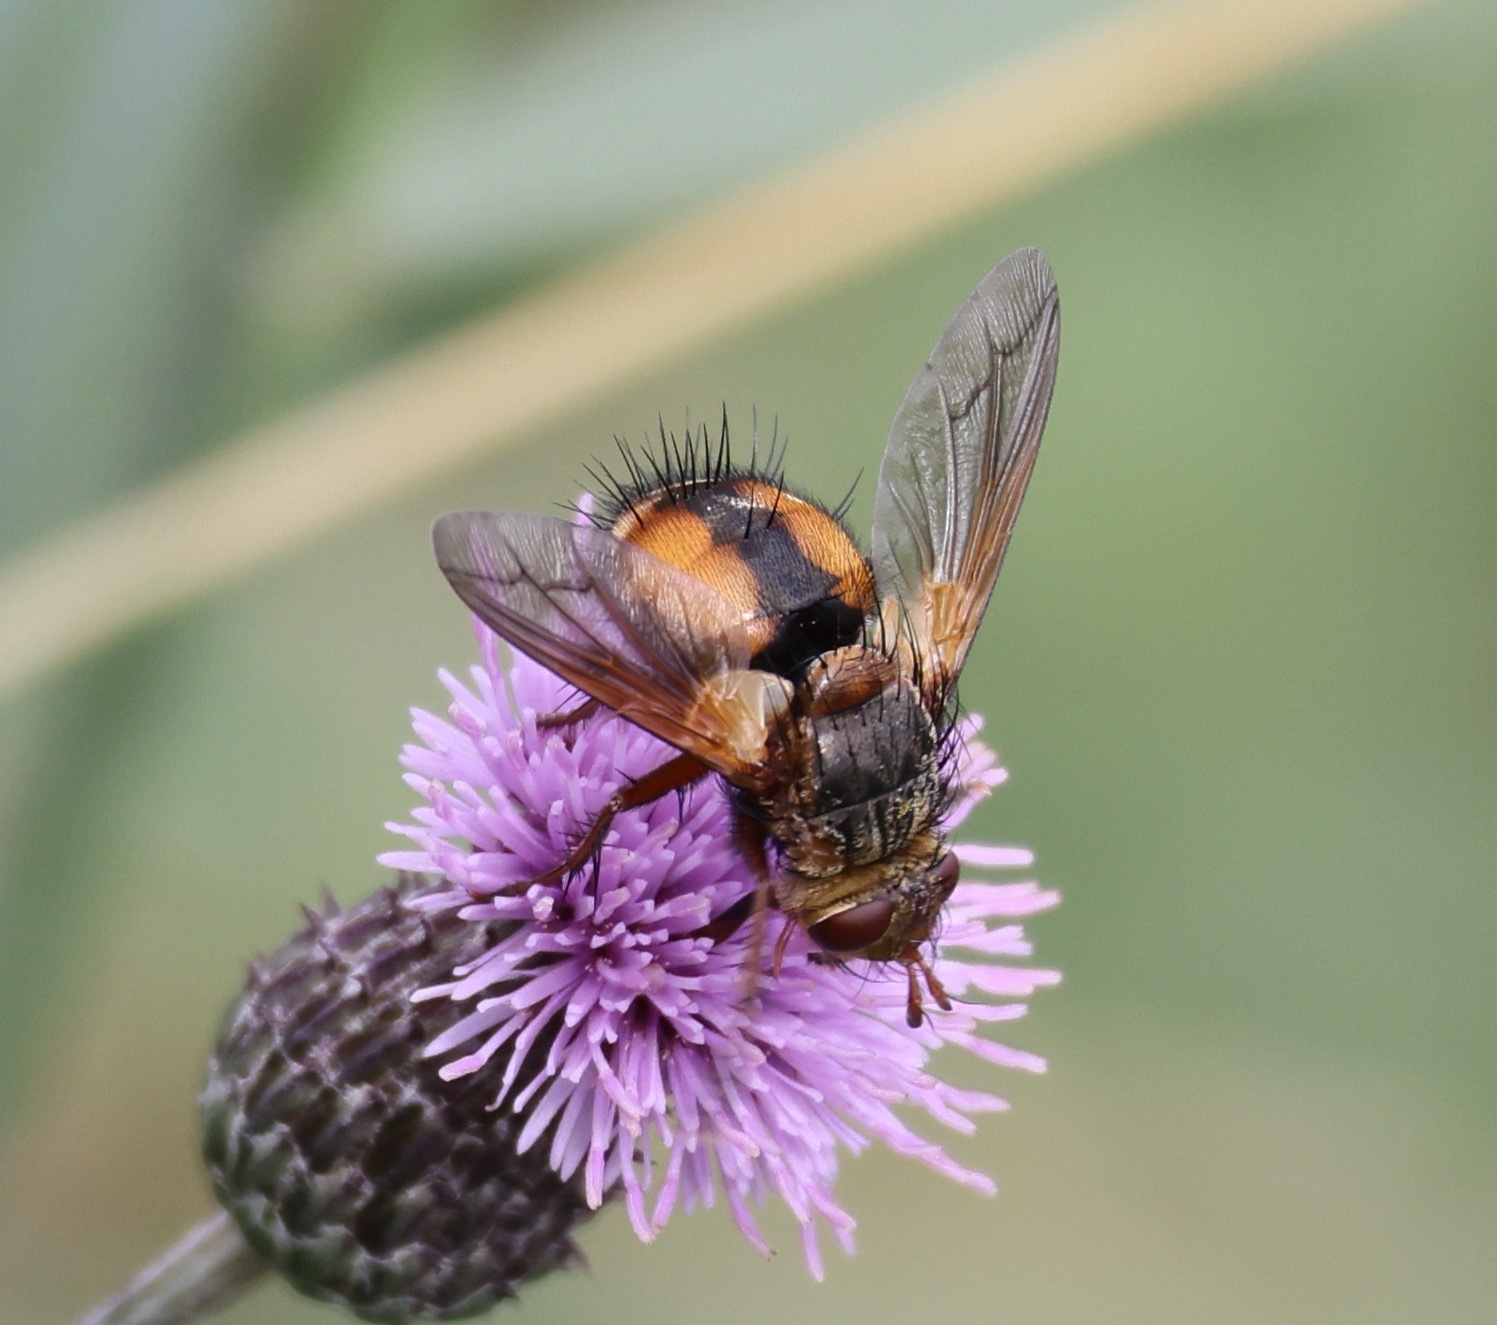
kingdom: Animalia
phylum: Arthropoda
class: Insecta
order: Diptera
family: Tachinidae
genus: Tachina
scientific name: Tachina fera
